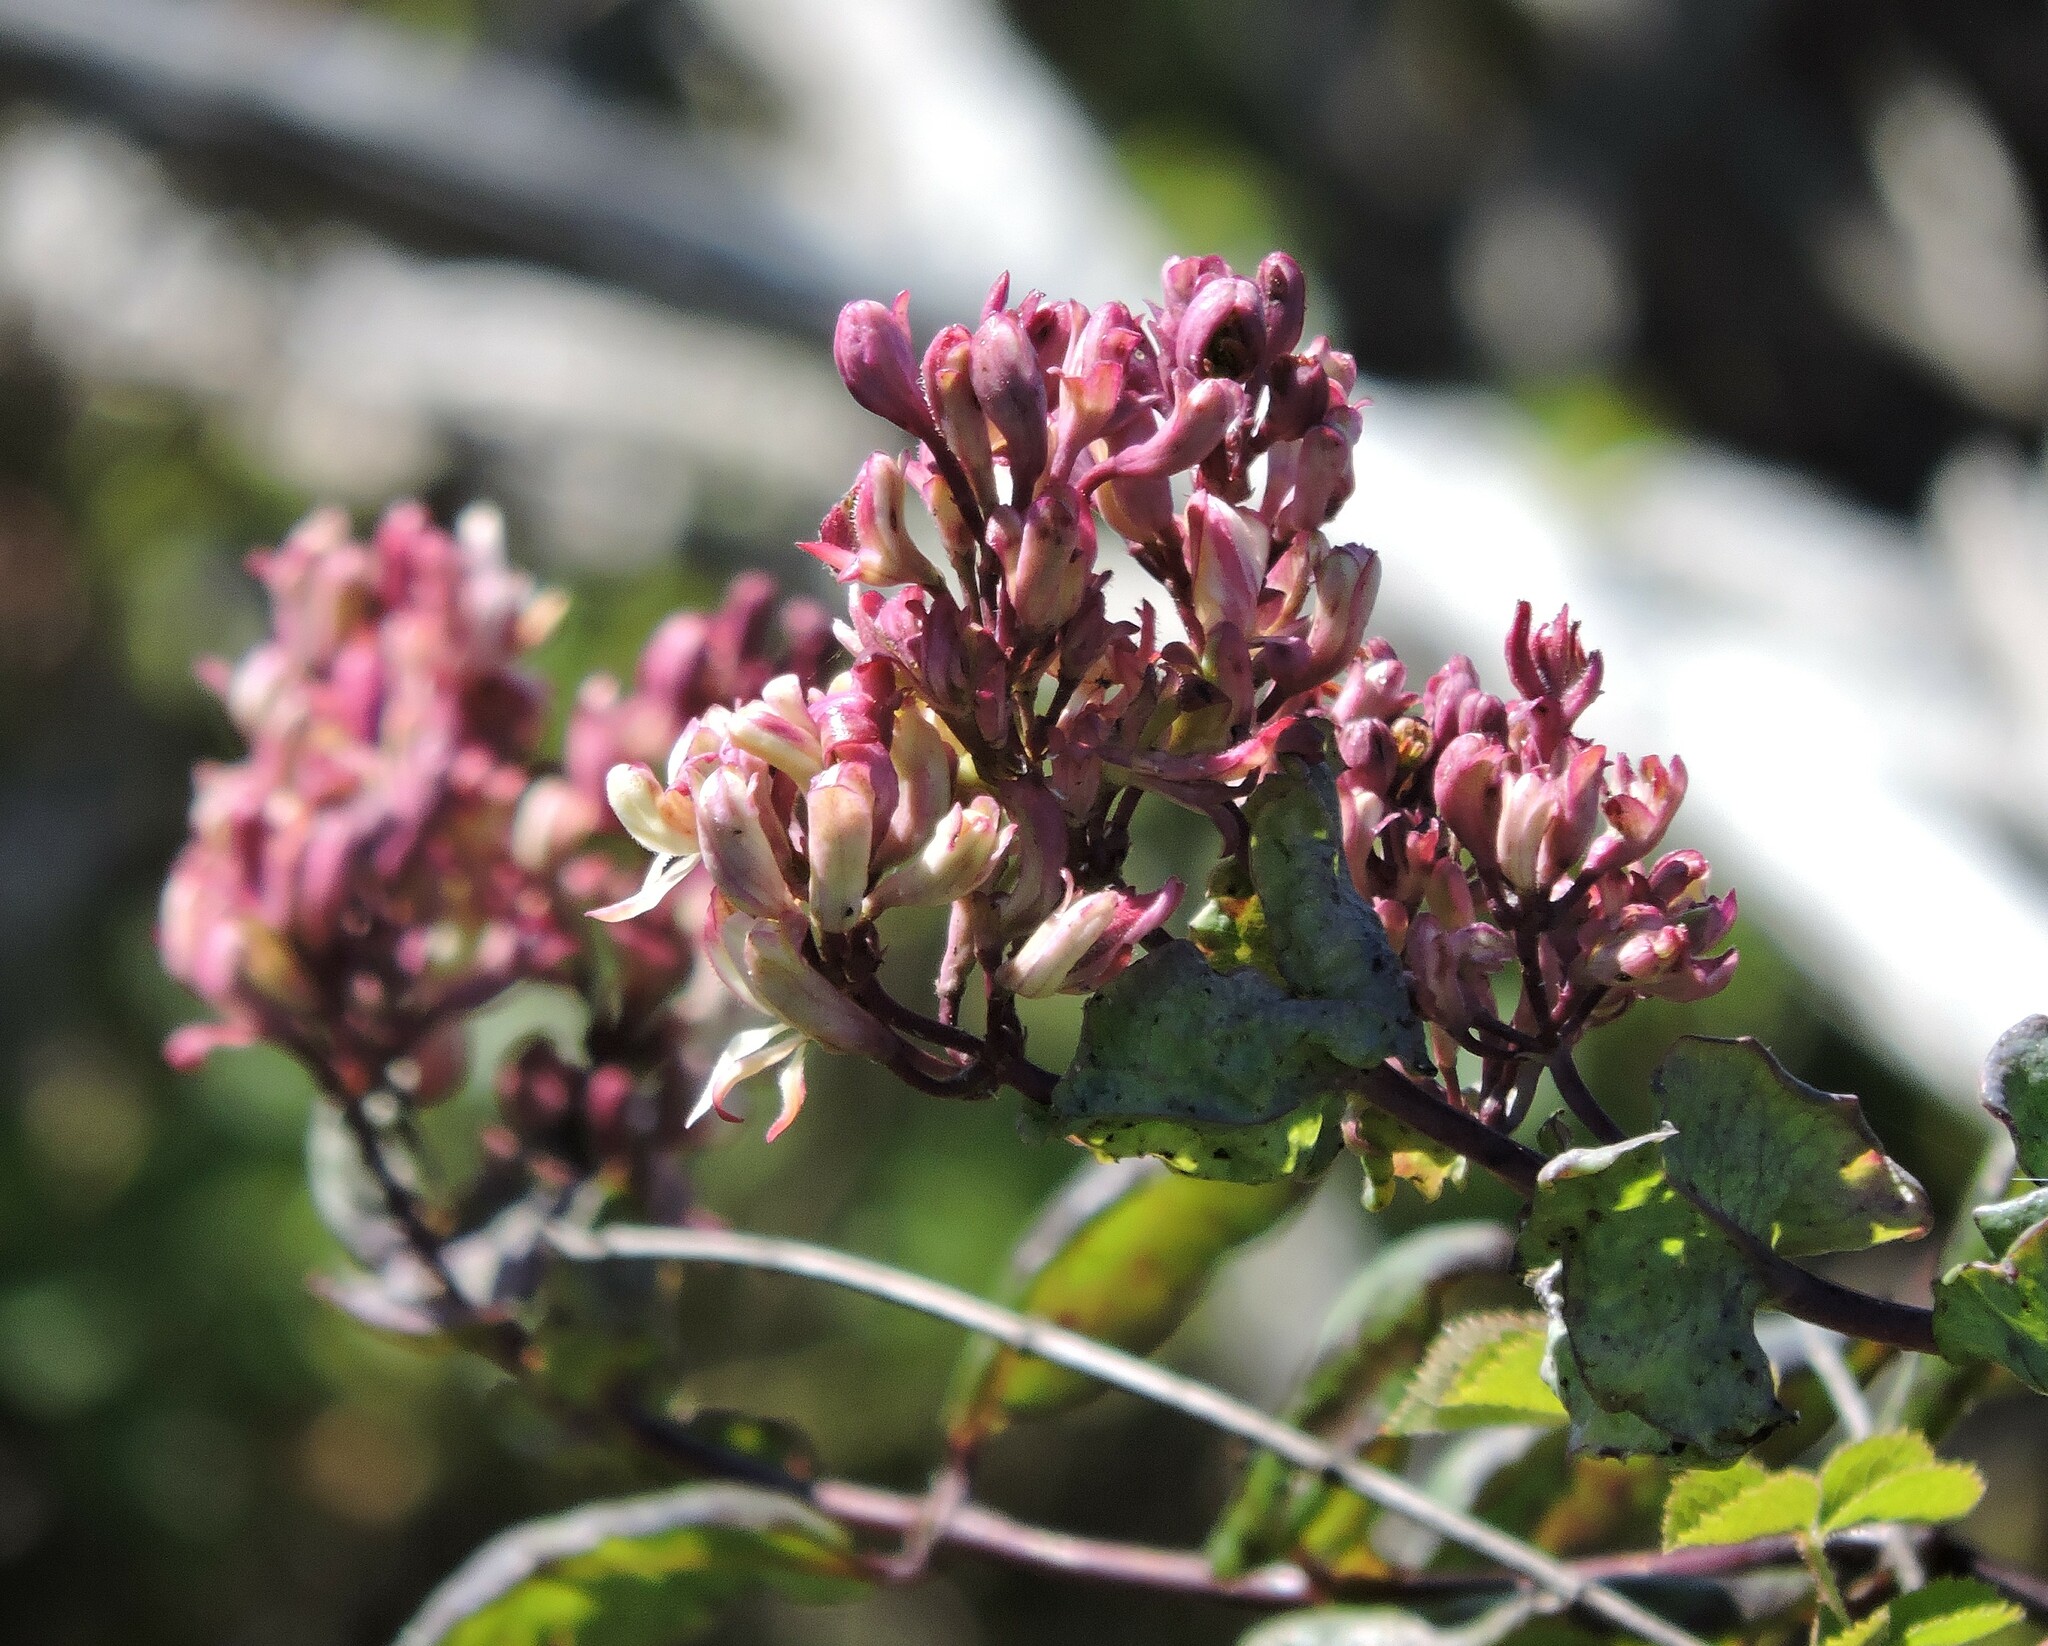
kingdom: Plantae
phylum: Tracheophyta
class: Magnoliopsida
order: Dipsacales
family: Caprifoliaceae
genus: Lonicera
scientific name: Lonicera hispidula
